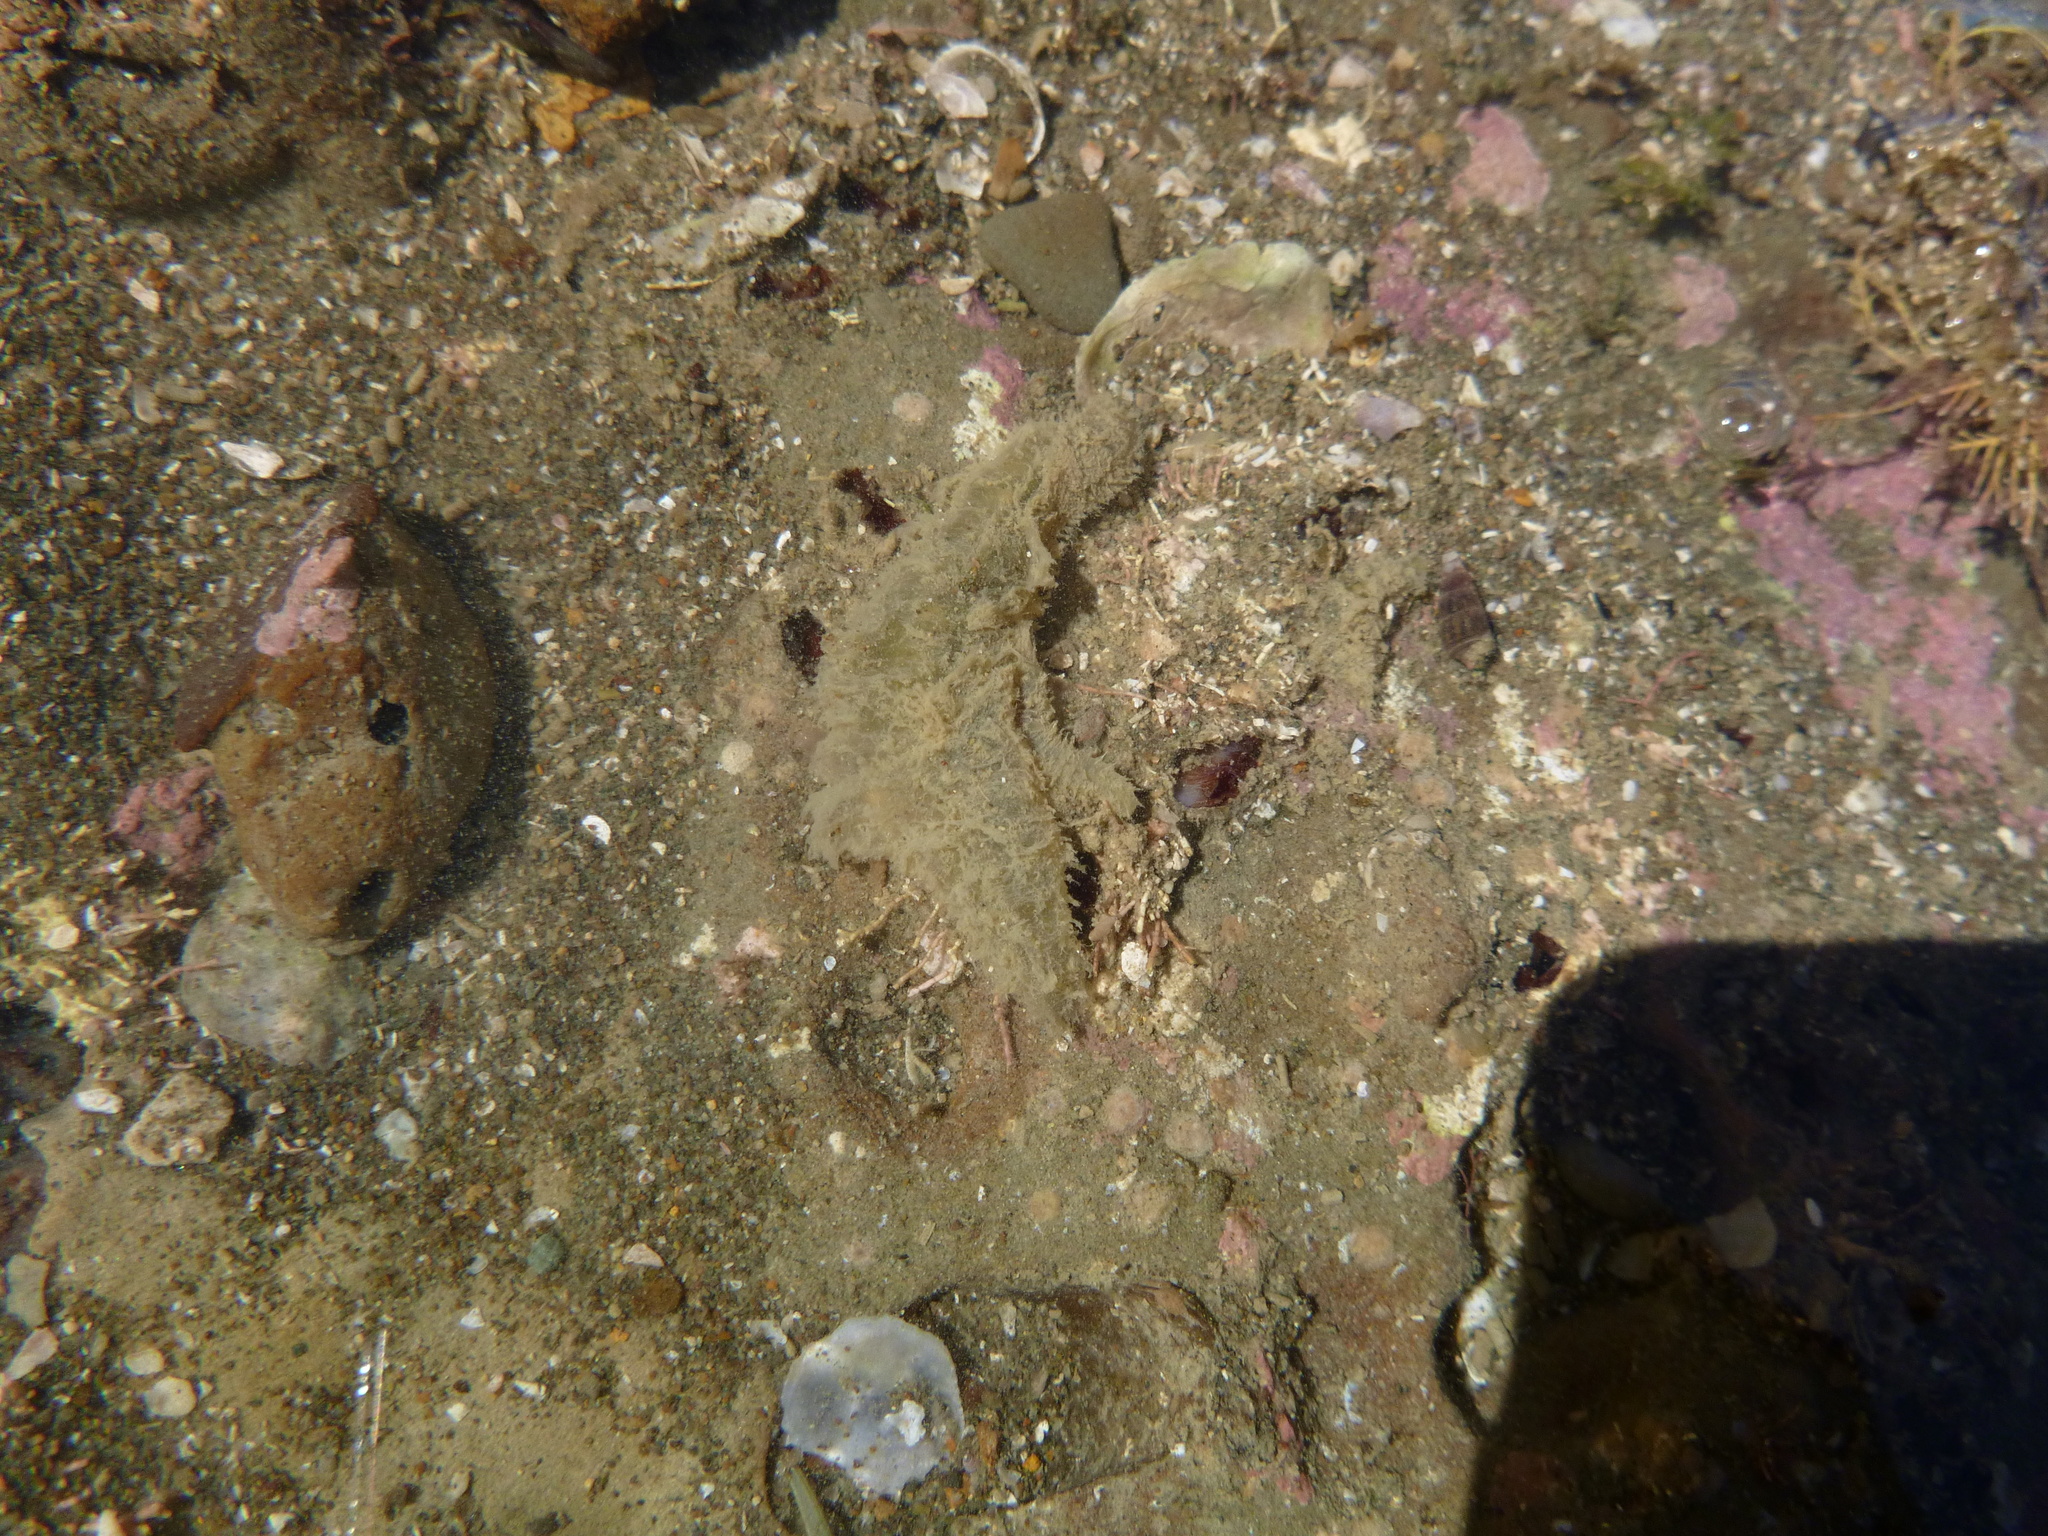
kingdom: Animalia
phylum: Annelida
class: Polychaeta
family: Flabelligeridae
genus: Flabelligera
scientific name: Flabelligera bicolor
